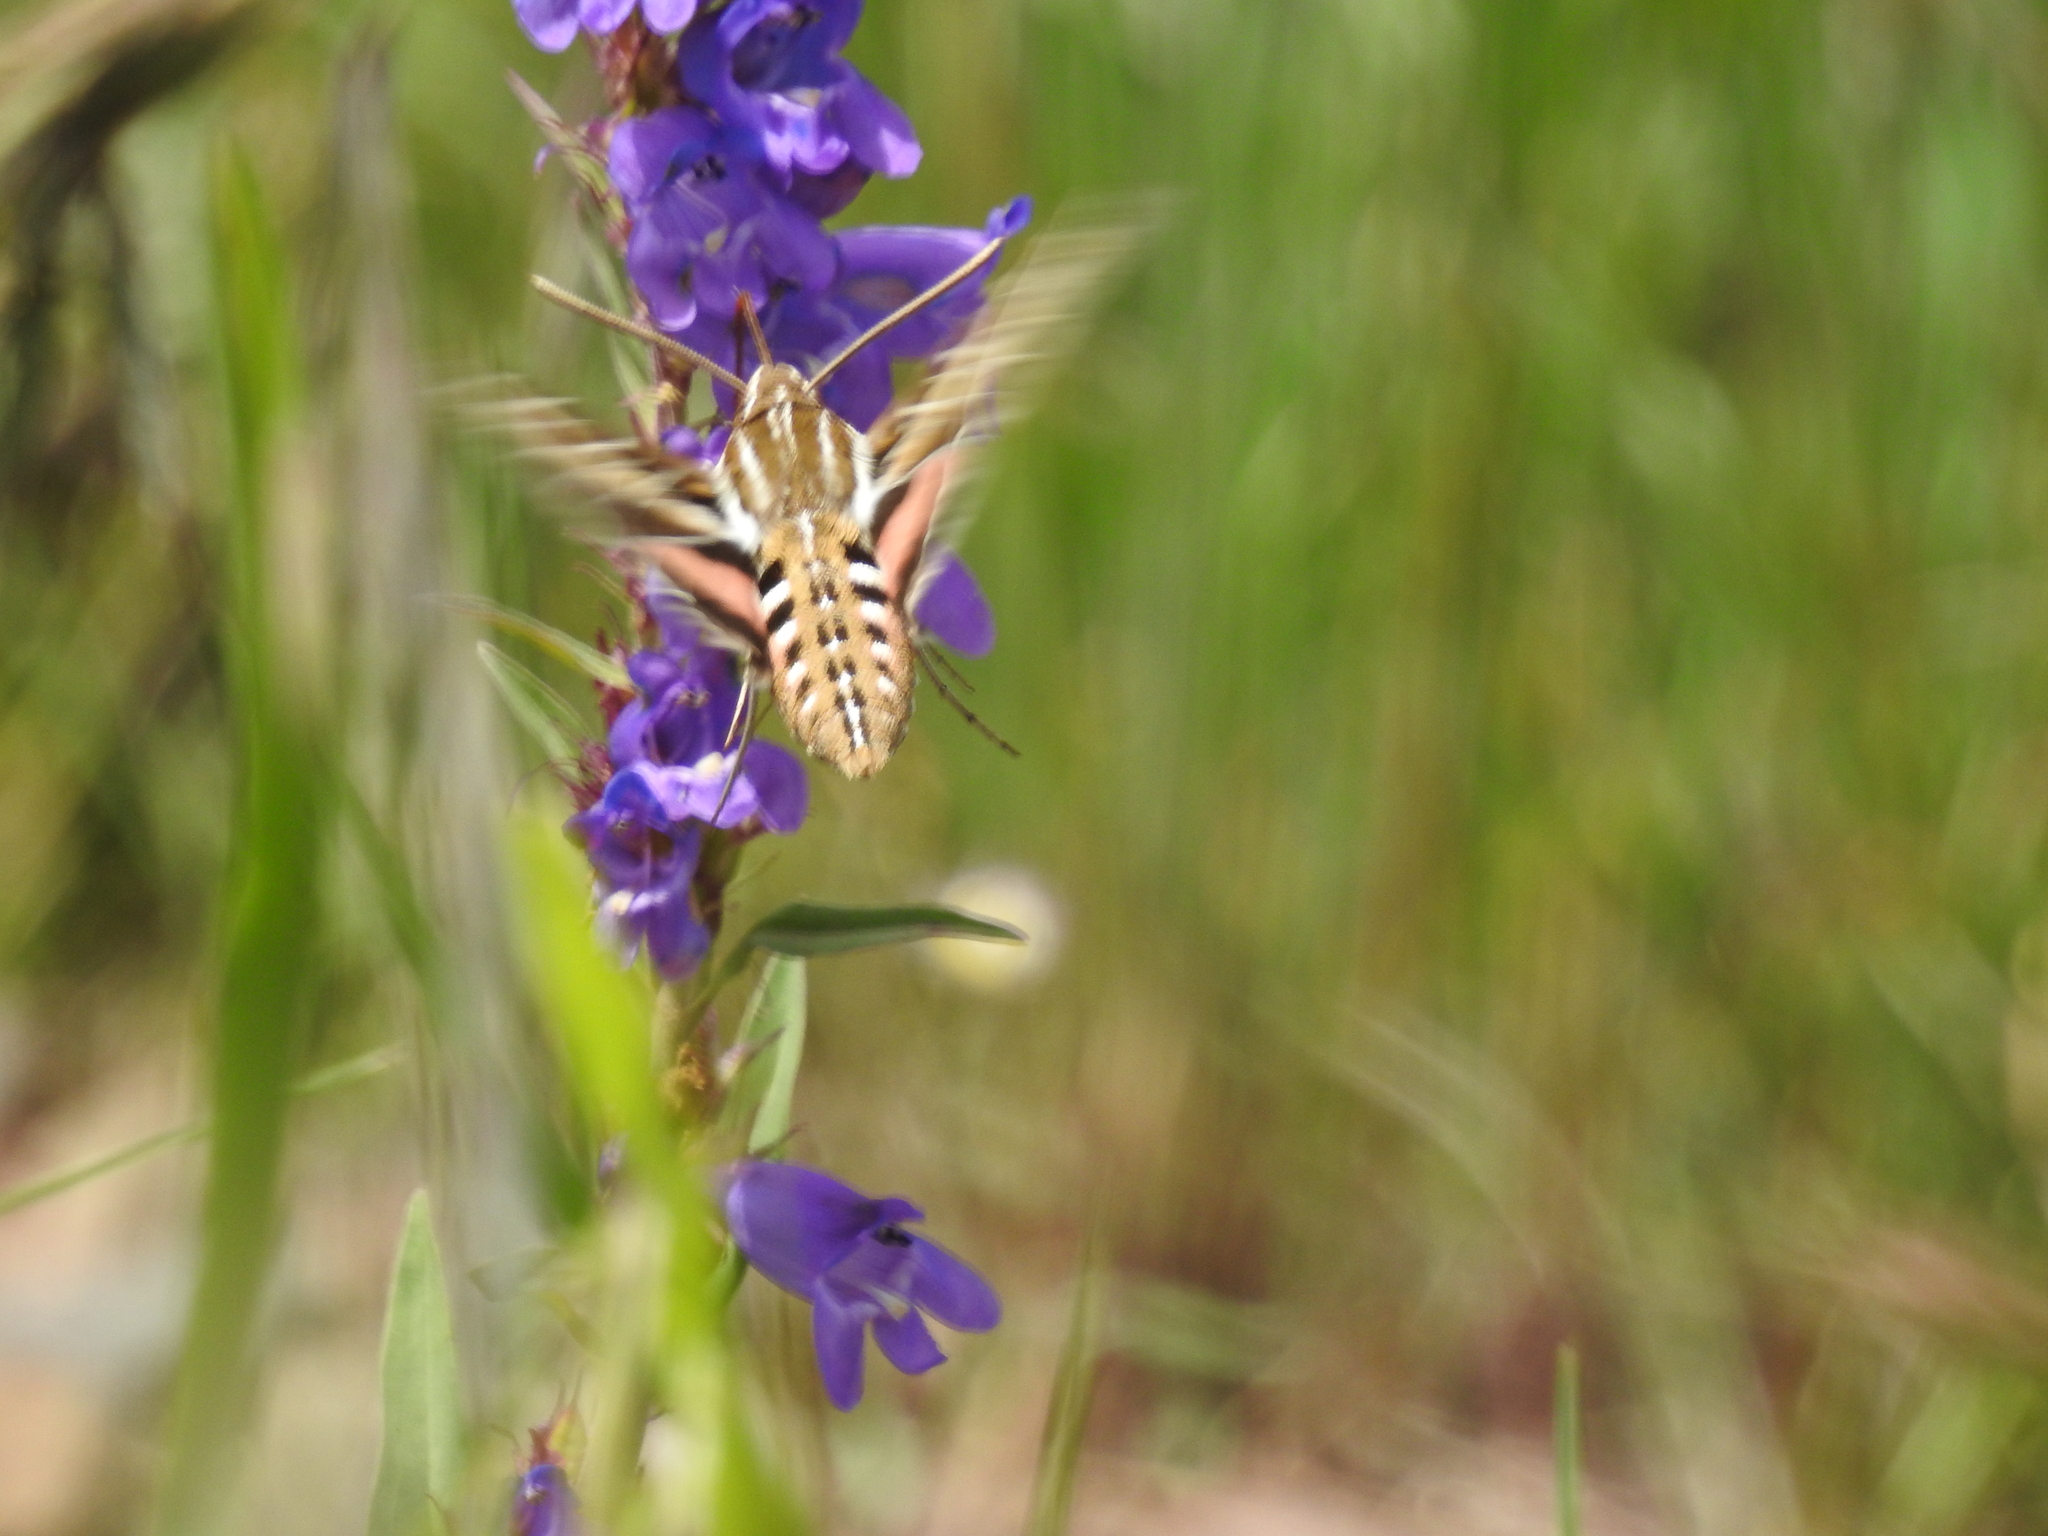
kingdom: Animalia
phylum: Arthropoda
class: Insecta
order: Lepidoptera
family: Sphingidae
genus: Hyles
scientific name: Hyles lineata
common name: White-lined sphinx
